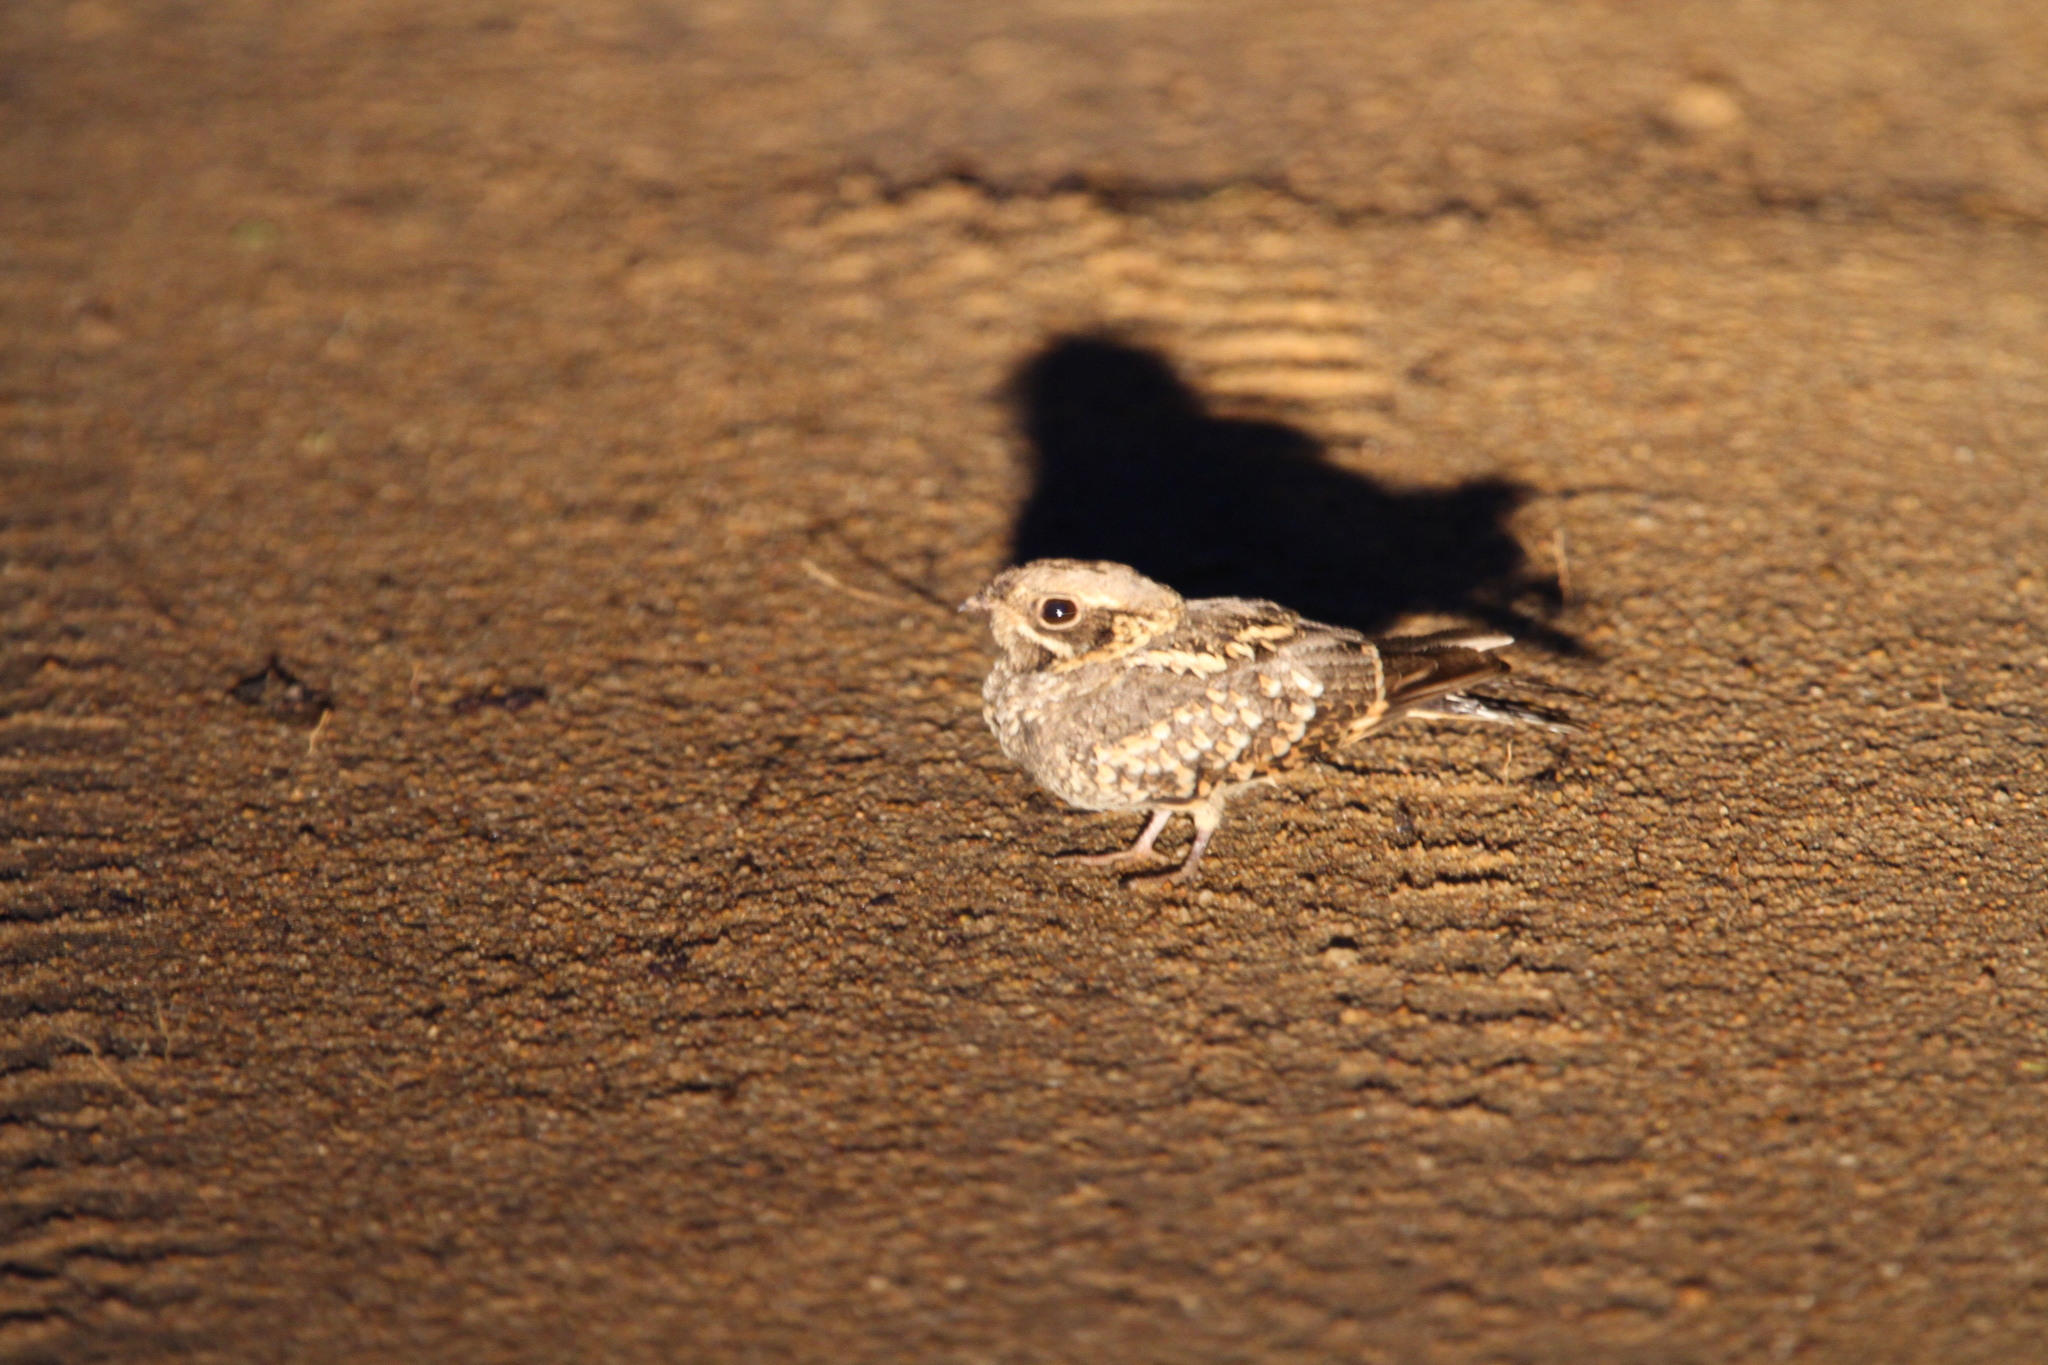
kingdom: Animalia
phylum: Chordata
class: Aves
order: Caprimulgiformes
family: Caprimulgidae
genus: Caprimulgus
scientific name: Caprimulgus asiaticus
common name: Indian nightjar
